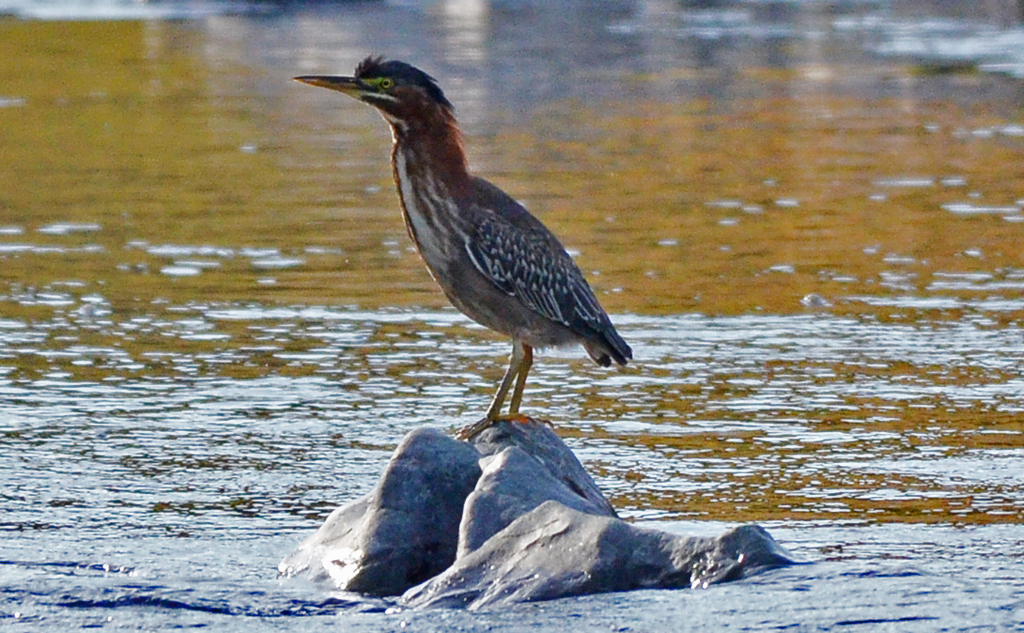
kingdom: Animalia
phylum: Chordata
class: Aves
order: Pelecaniformes
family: Ardeidae
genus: Butorides
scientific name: Butorides virescens
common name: Green heron
